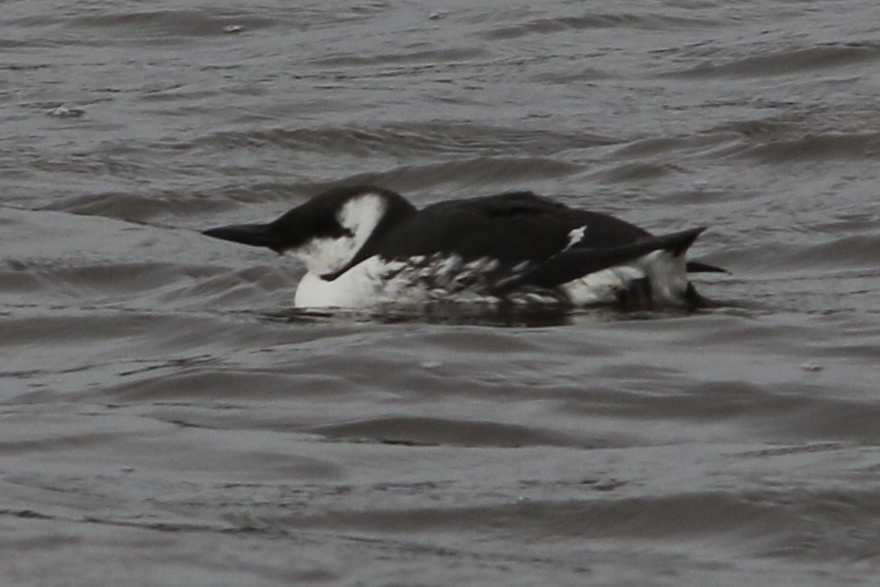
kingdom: Animalia
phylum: Chordata
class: Aves
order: Charadriiformes
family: Alcidae
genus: Uria
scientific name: Uria aalge
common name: Common murre
